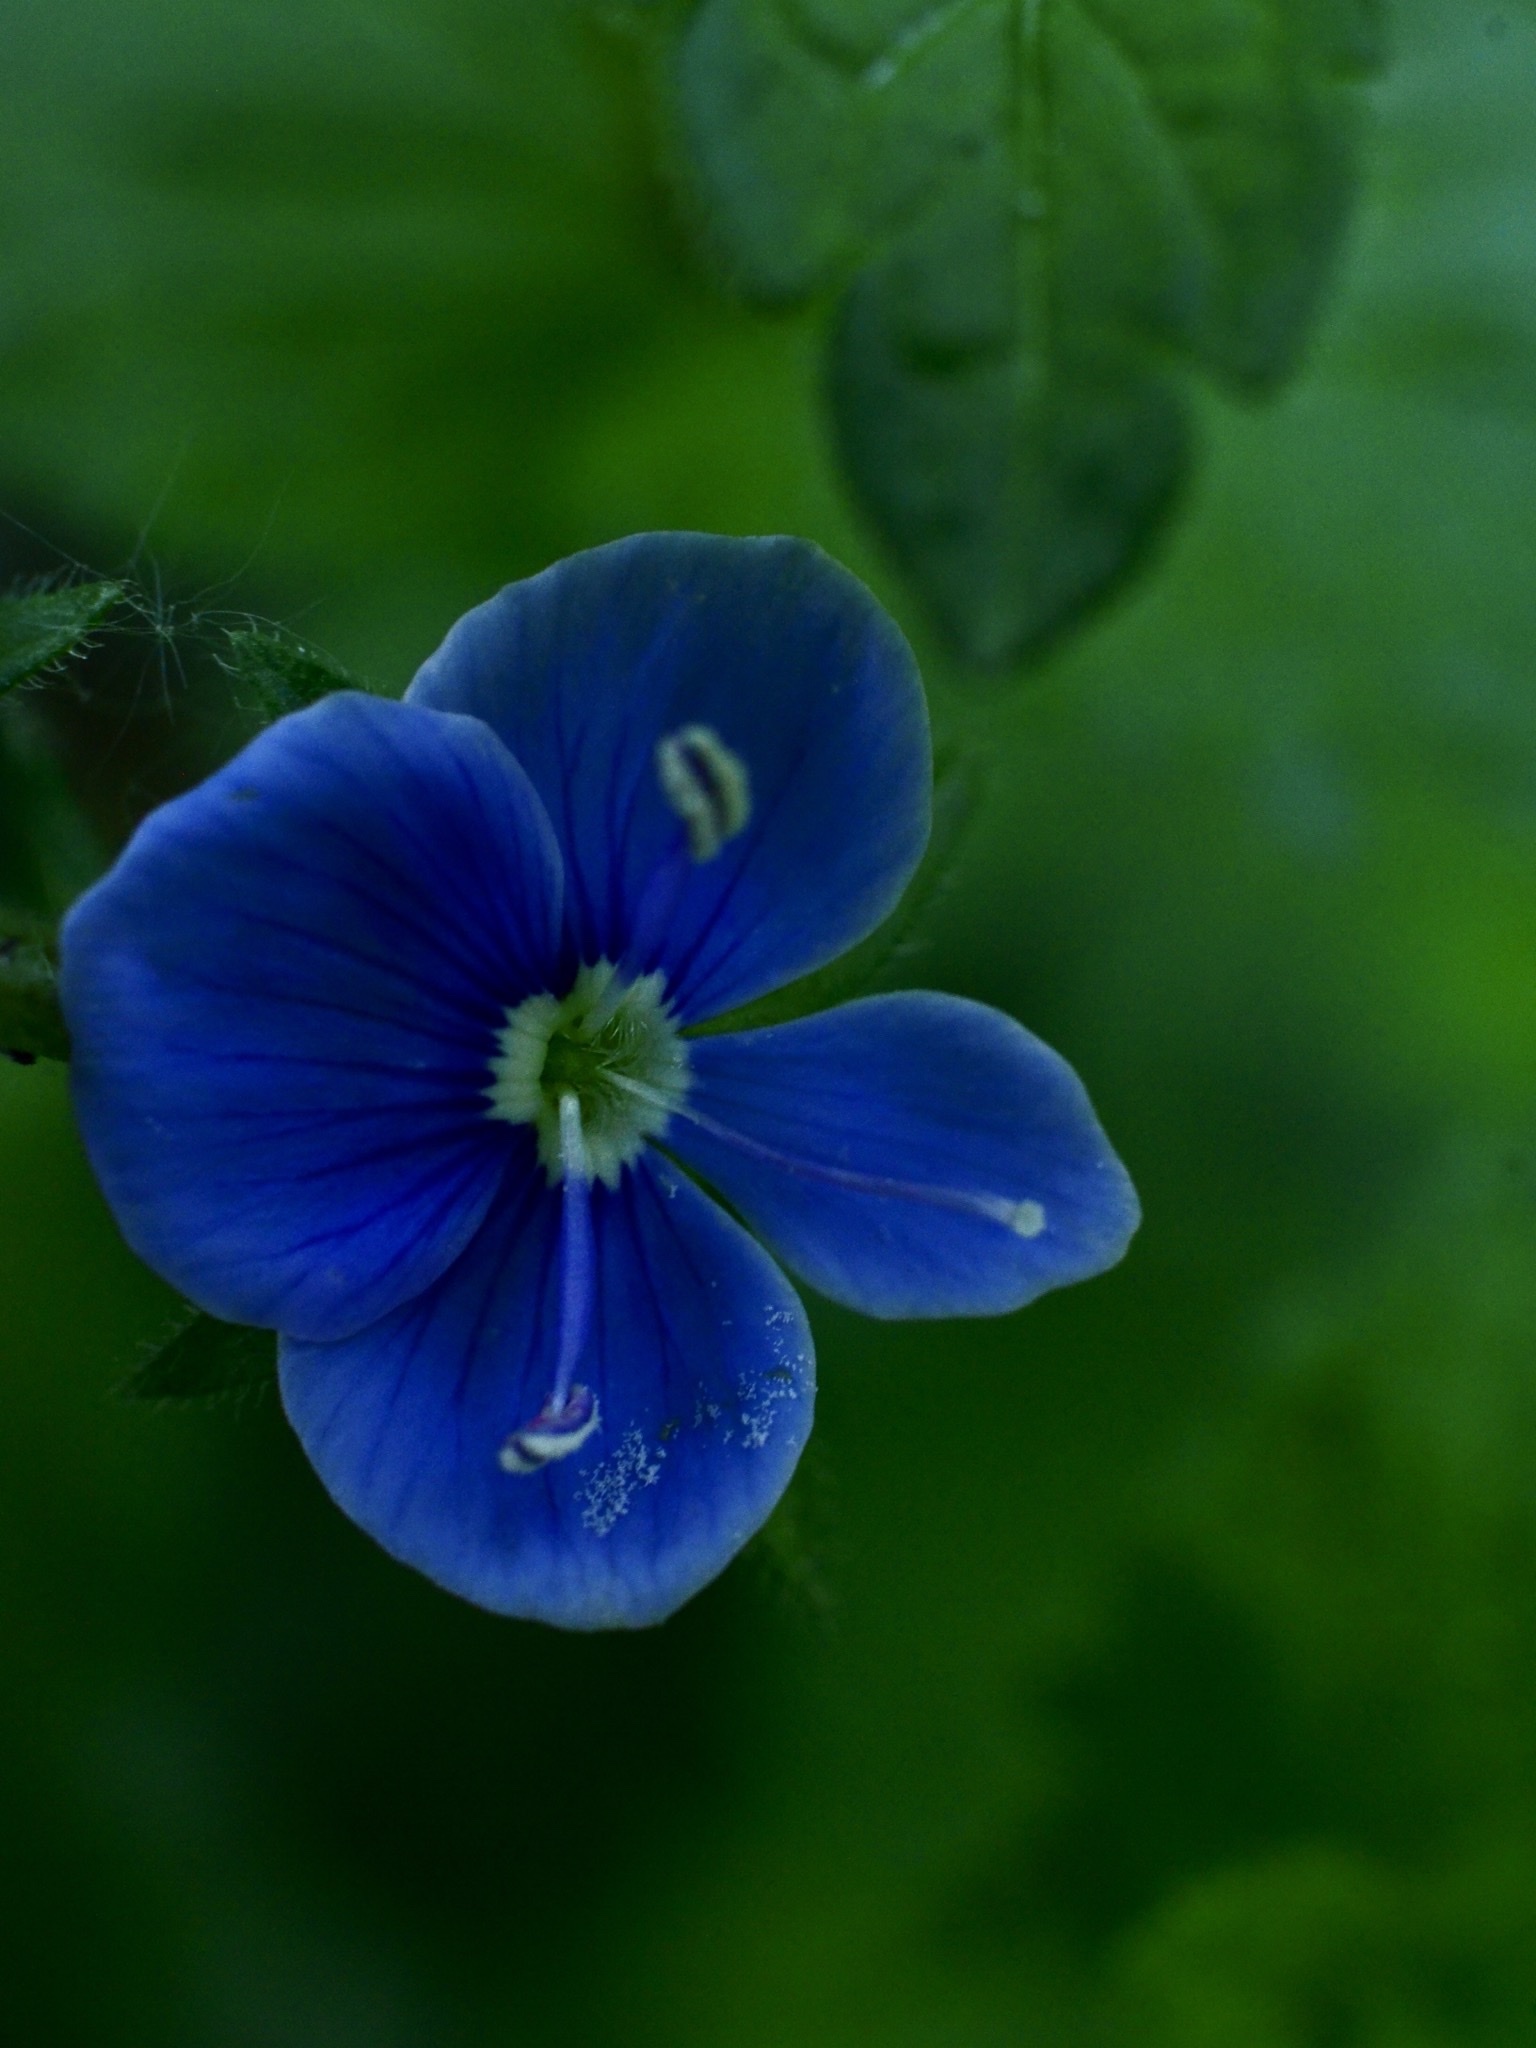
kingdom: Plantae
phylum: Tracheophyta
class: Magnoliopsida
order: Lamiales
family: Plantaginaceae
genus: Veronica
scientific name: Veronica chamaedrys
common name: Germander speedwell
